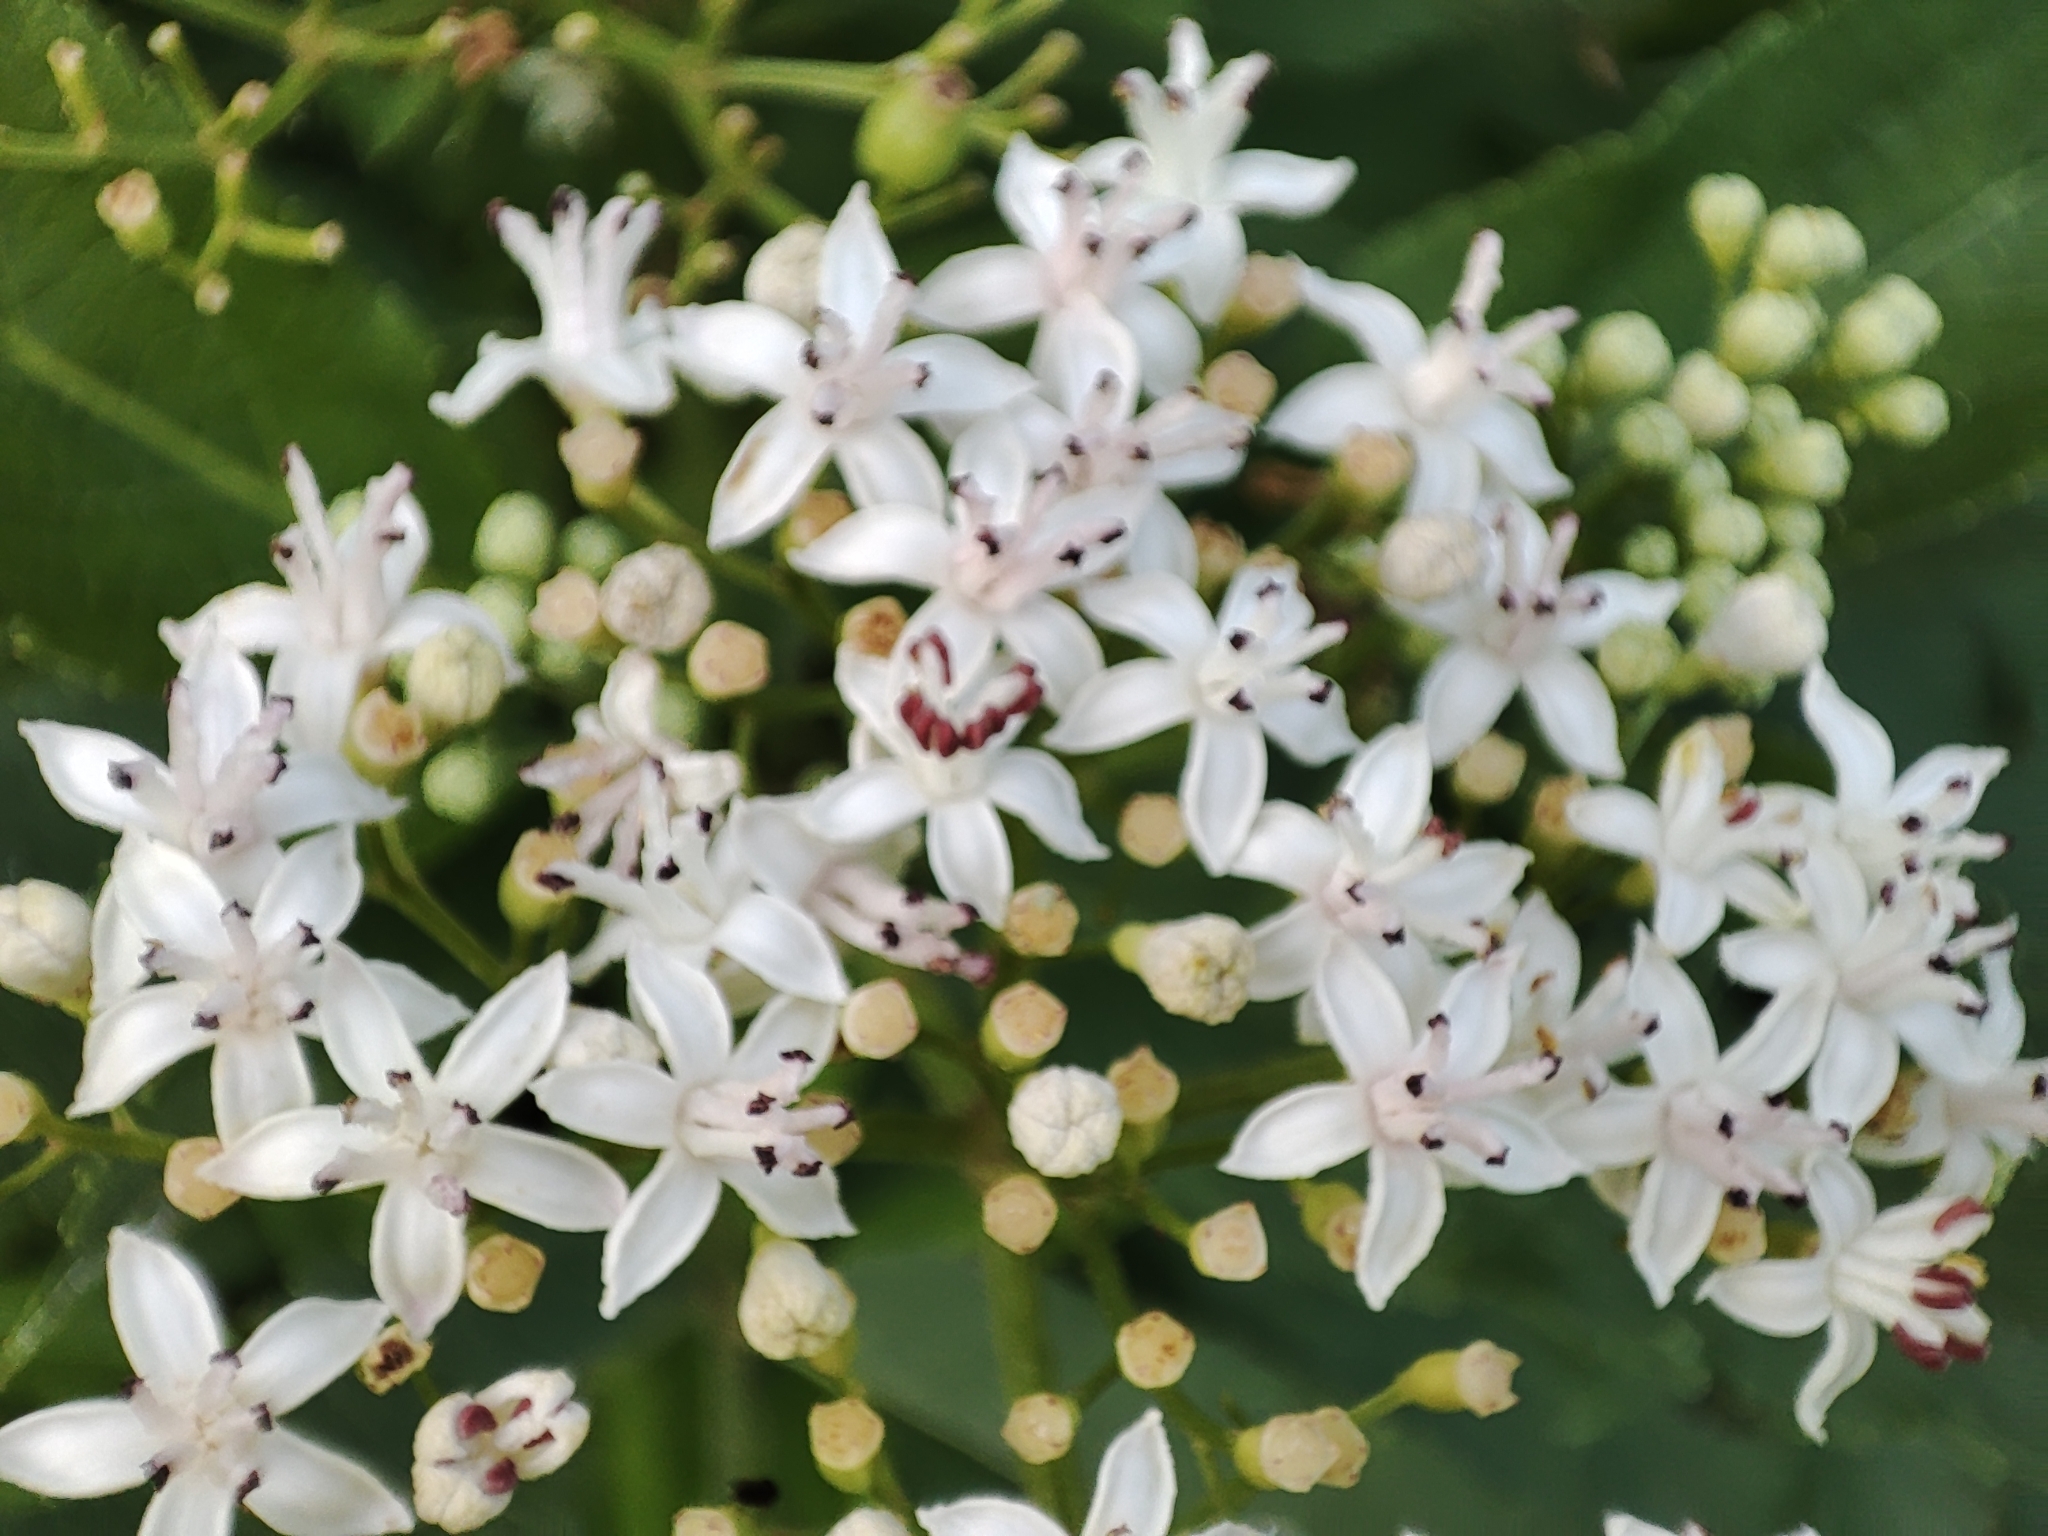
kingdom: Plantae
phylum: Tracheophyta
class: Magnoliopsida
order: Dipsacales
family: Viburnaceae
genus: Sambucus
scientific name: Sambucus ebulus
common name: Dwarf elder
